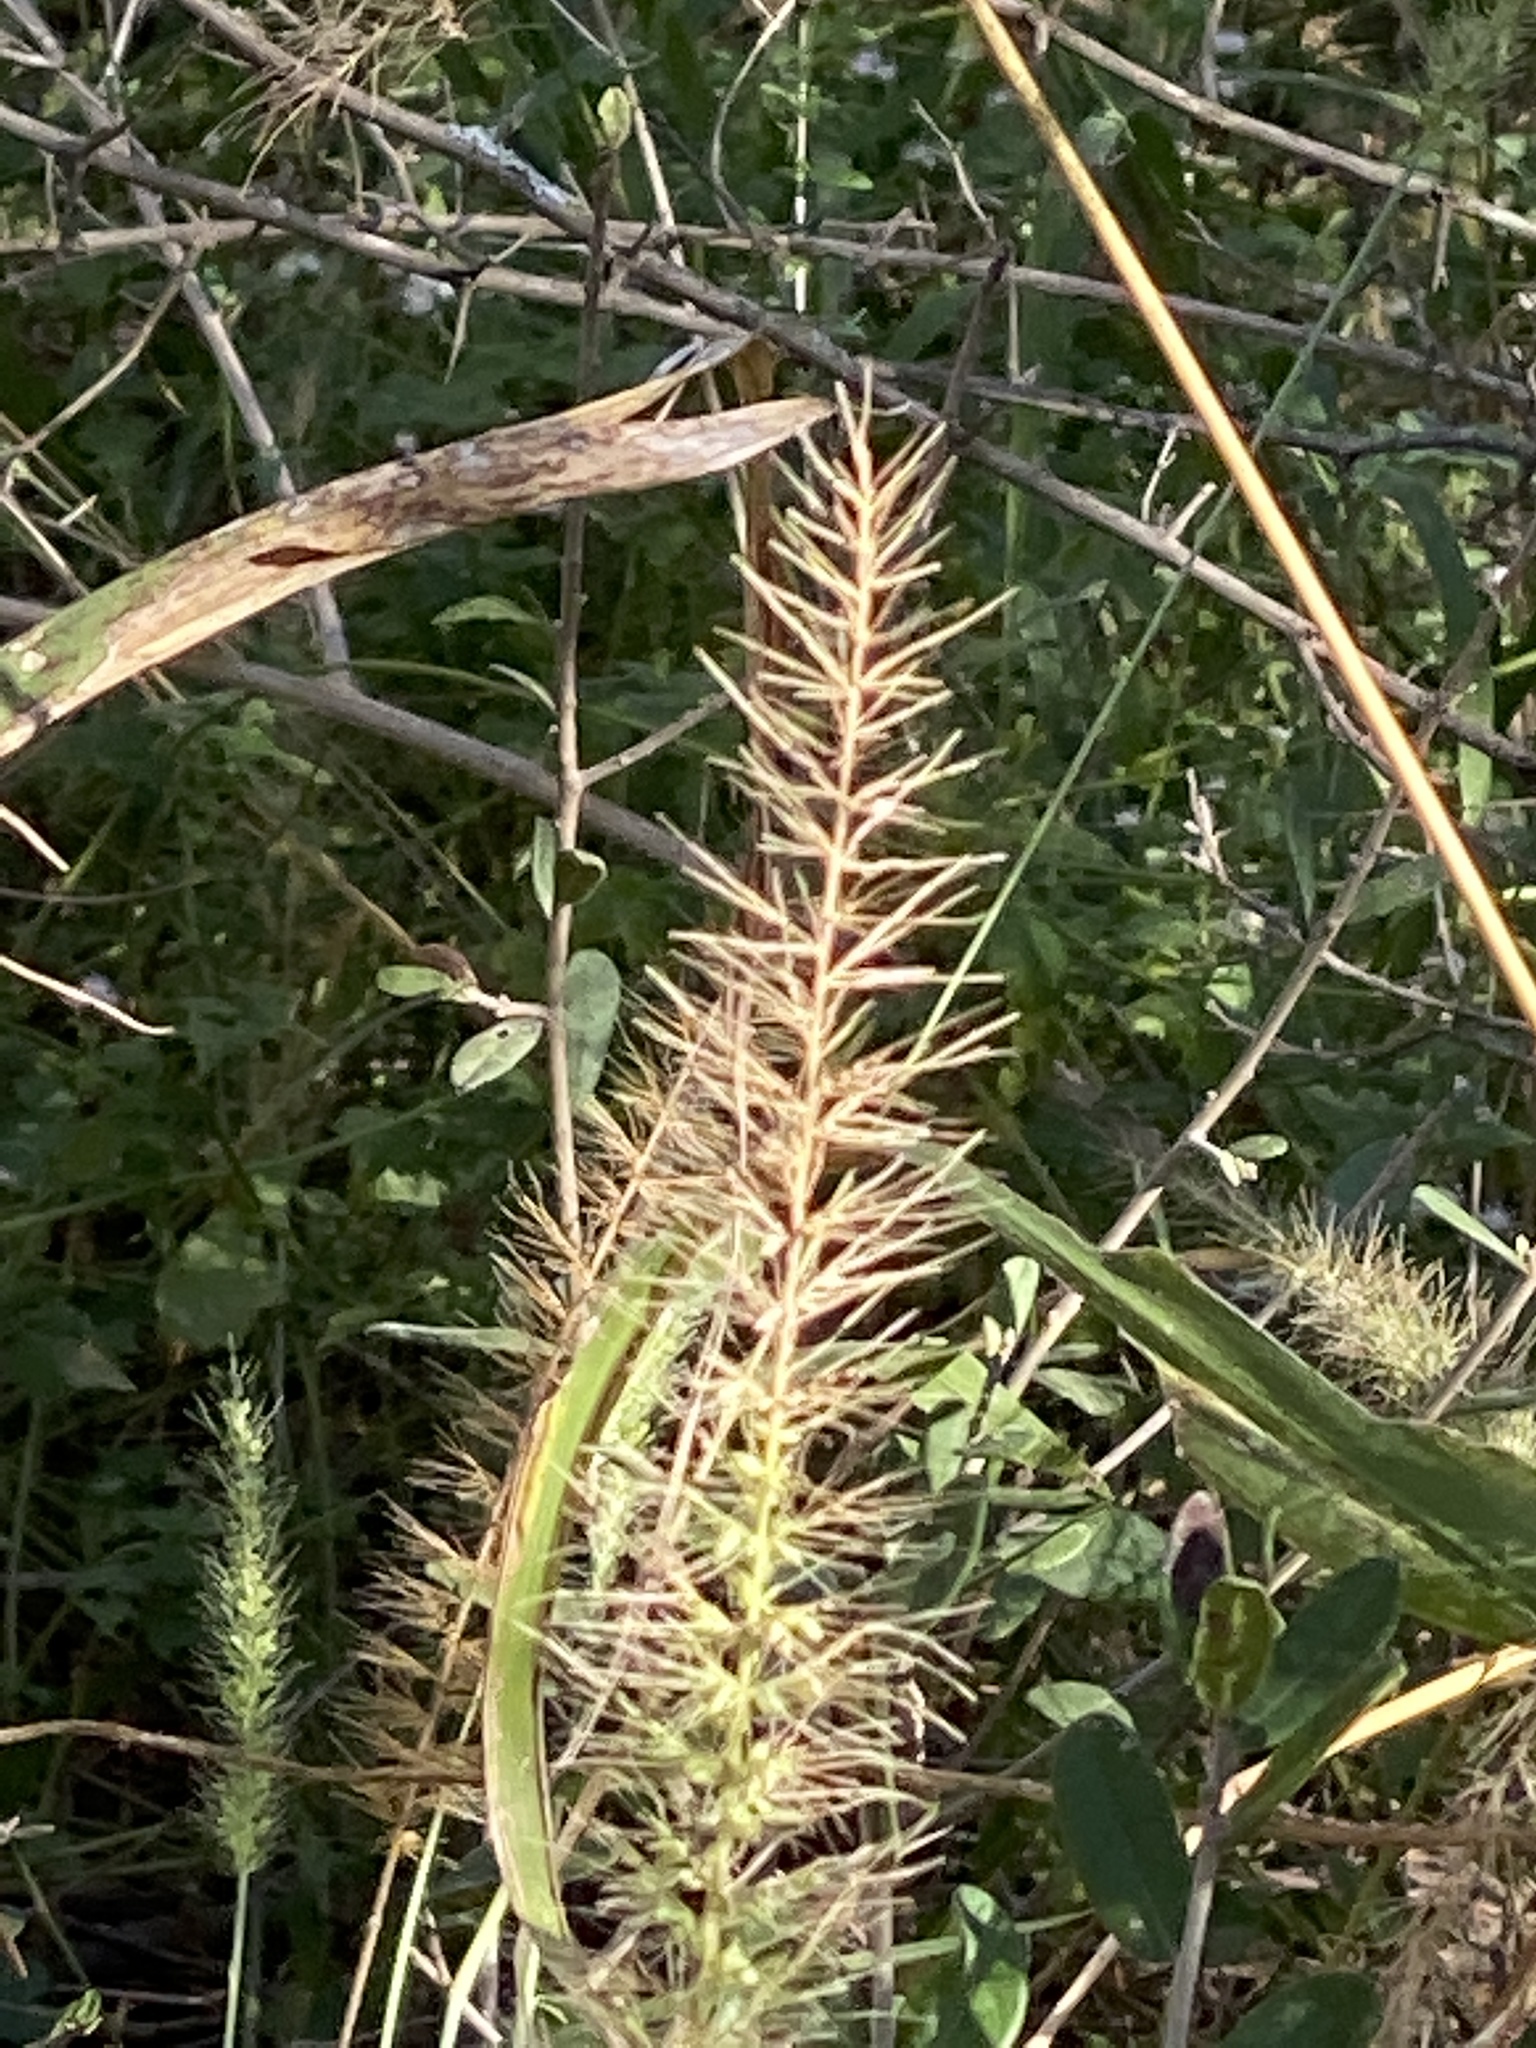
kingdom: Plantae
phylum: Tracheophyta
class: Liliopsida
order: Poales
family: Poaceae
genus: Setaria
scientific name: Setaria scheelei
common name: Southwestern bristle grass
